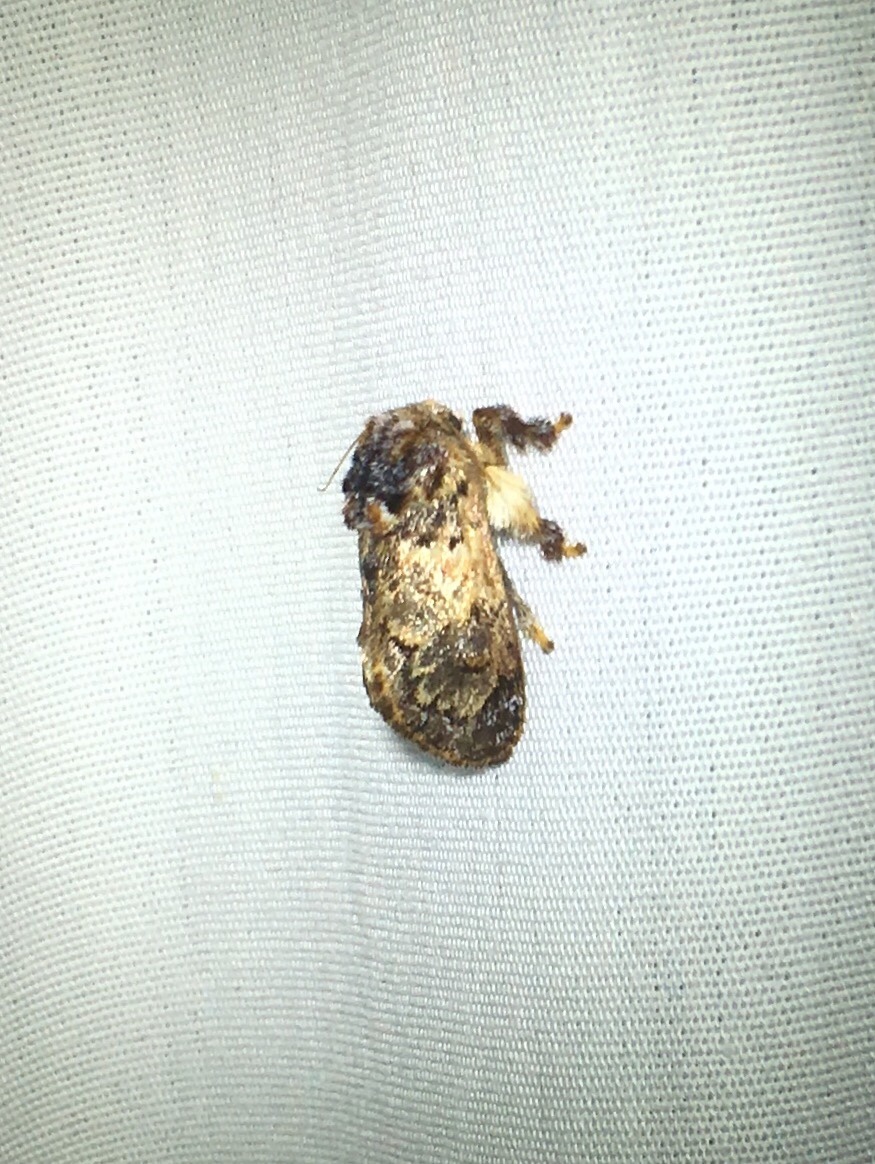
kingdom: Animalia
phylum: Arthropoda
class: Insecta
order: Lepidoptera
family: Limacodidae
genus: Phobetron
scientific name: Phobetron pithecium
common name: Hag moth
